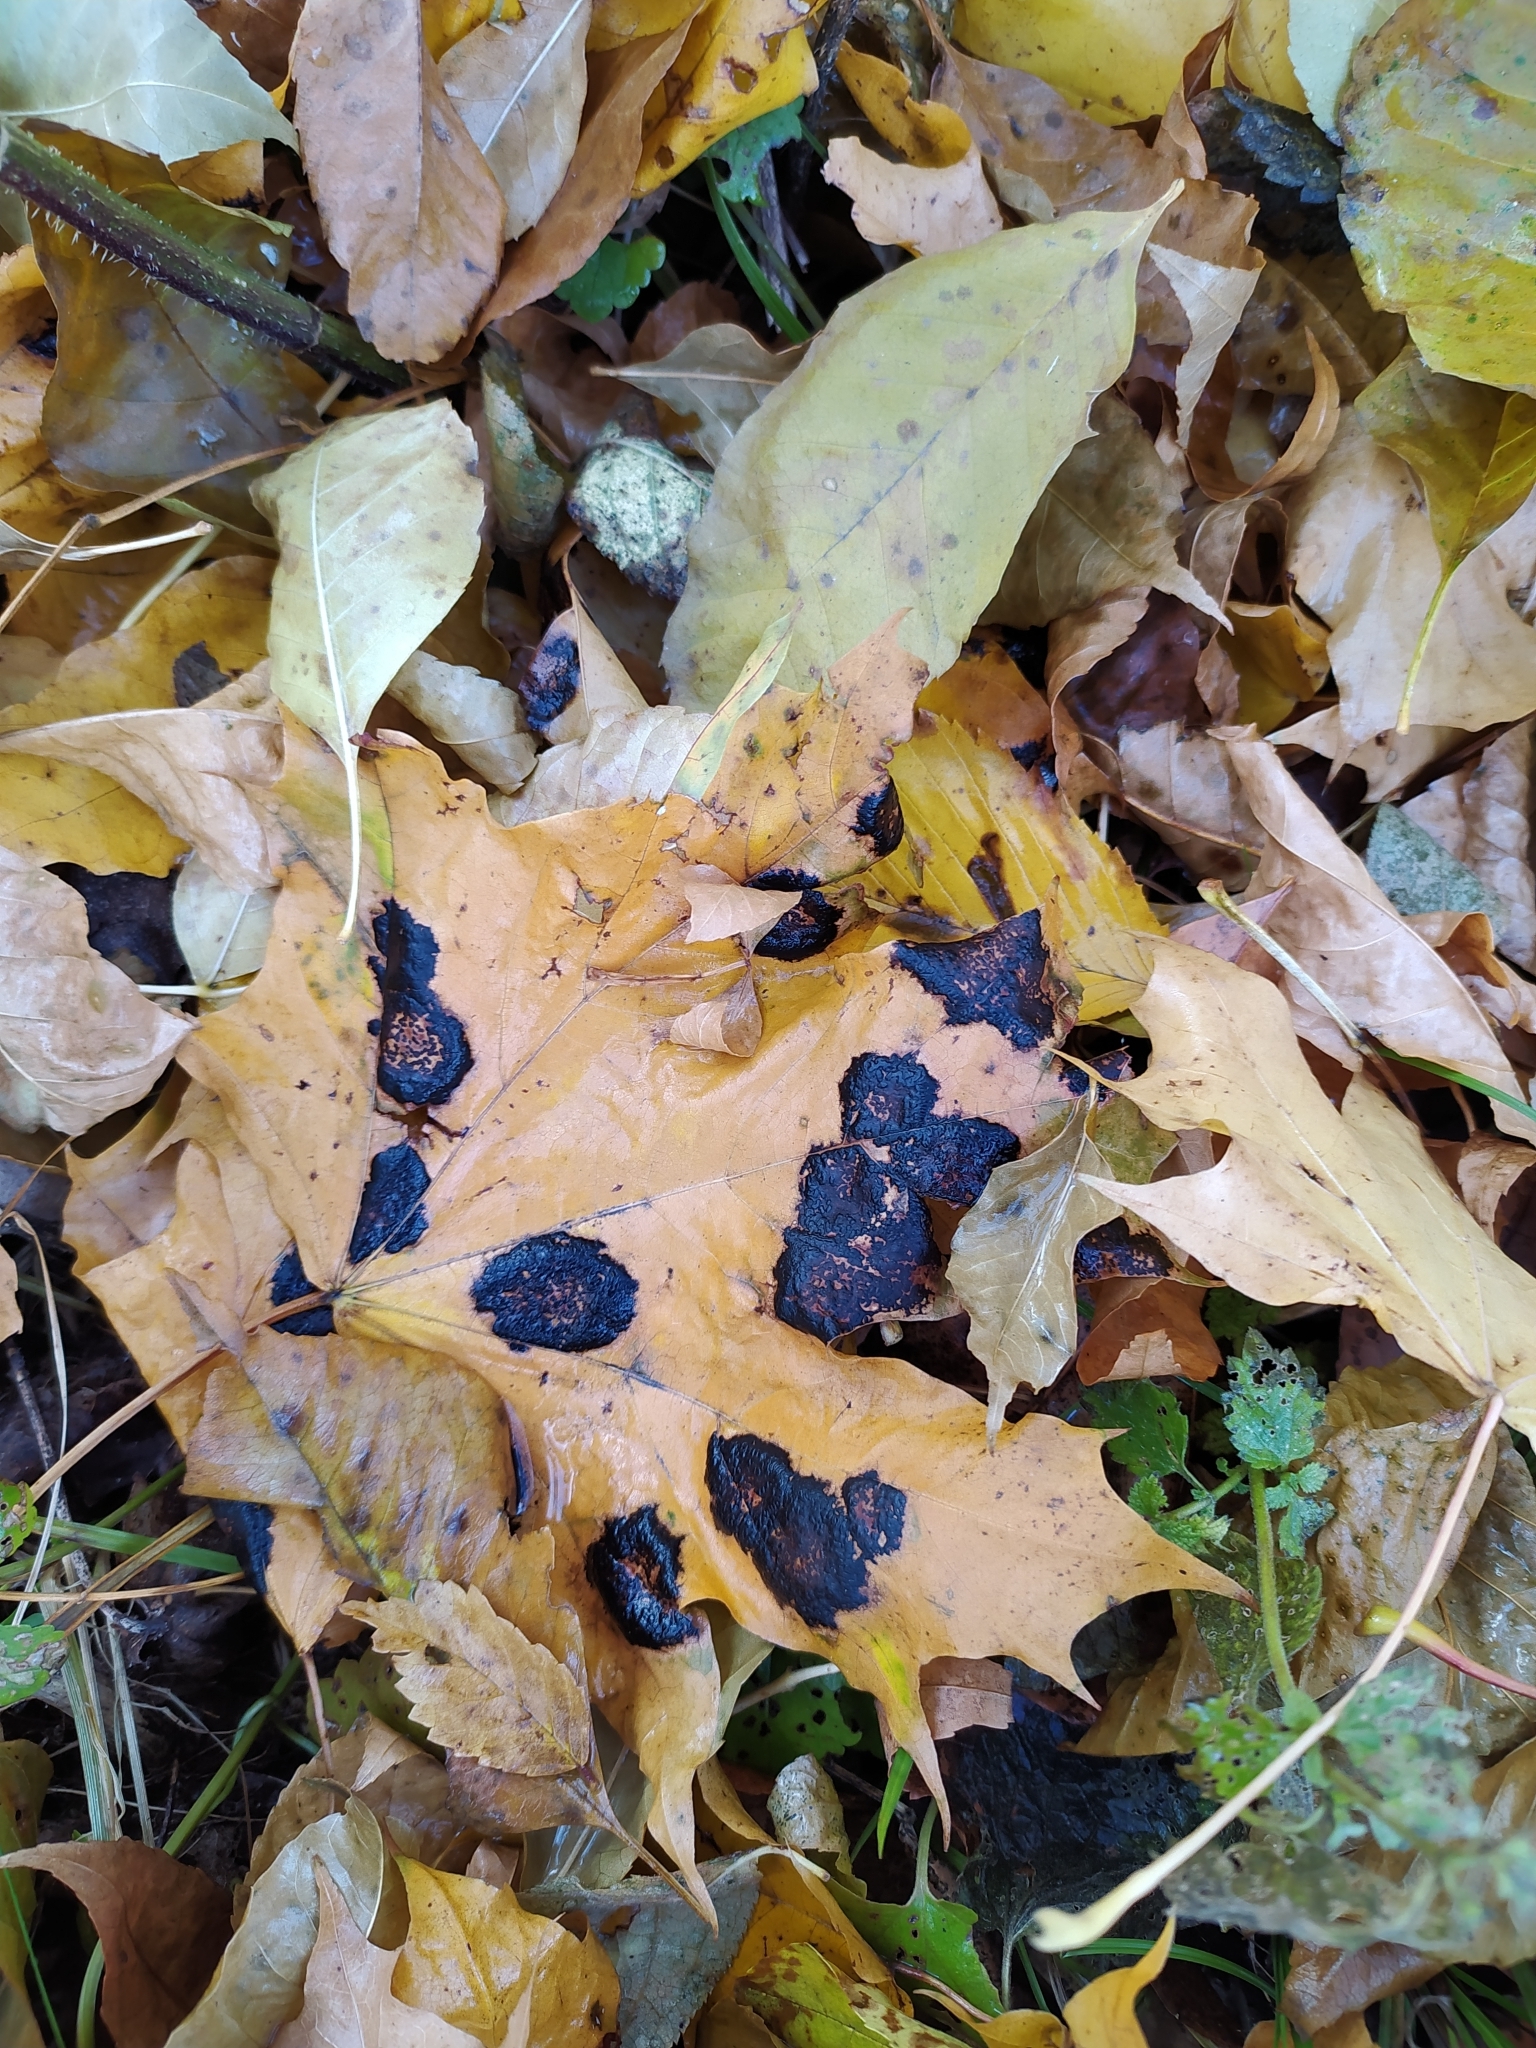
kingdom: Fungi
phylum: Ascomycota
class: Leotiomycetes
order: Rhytismatales
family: Rhytismataceae
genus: Rhytisma
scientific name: Rhytisma acerinum
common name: European tar spot
